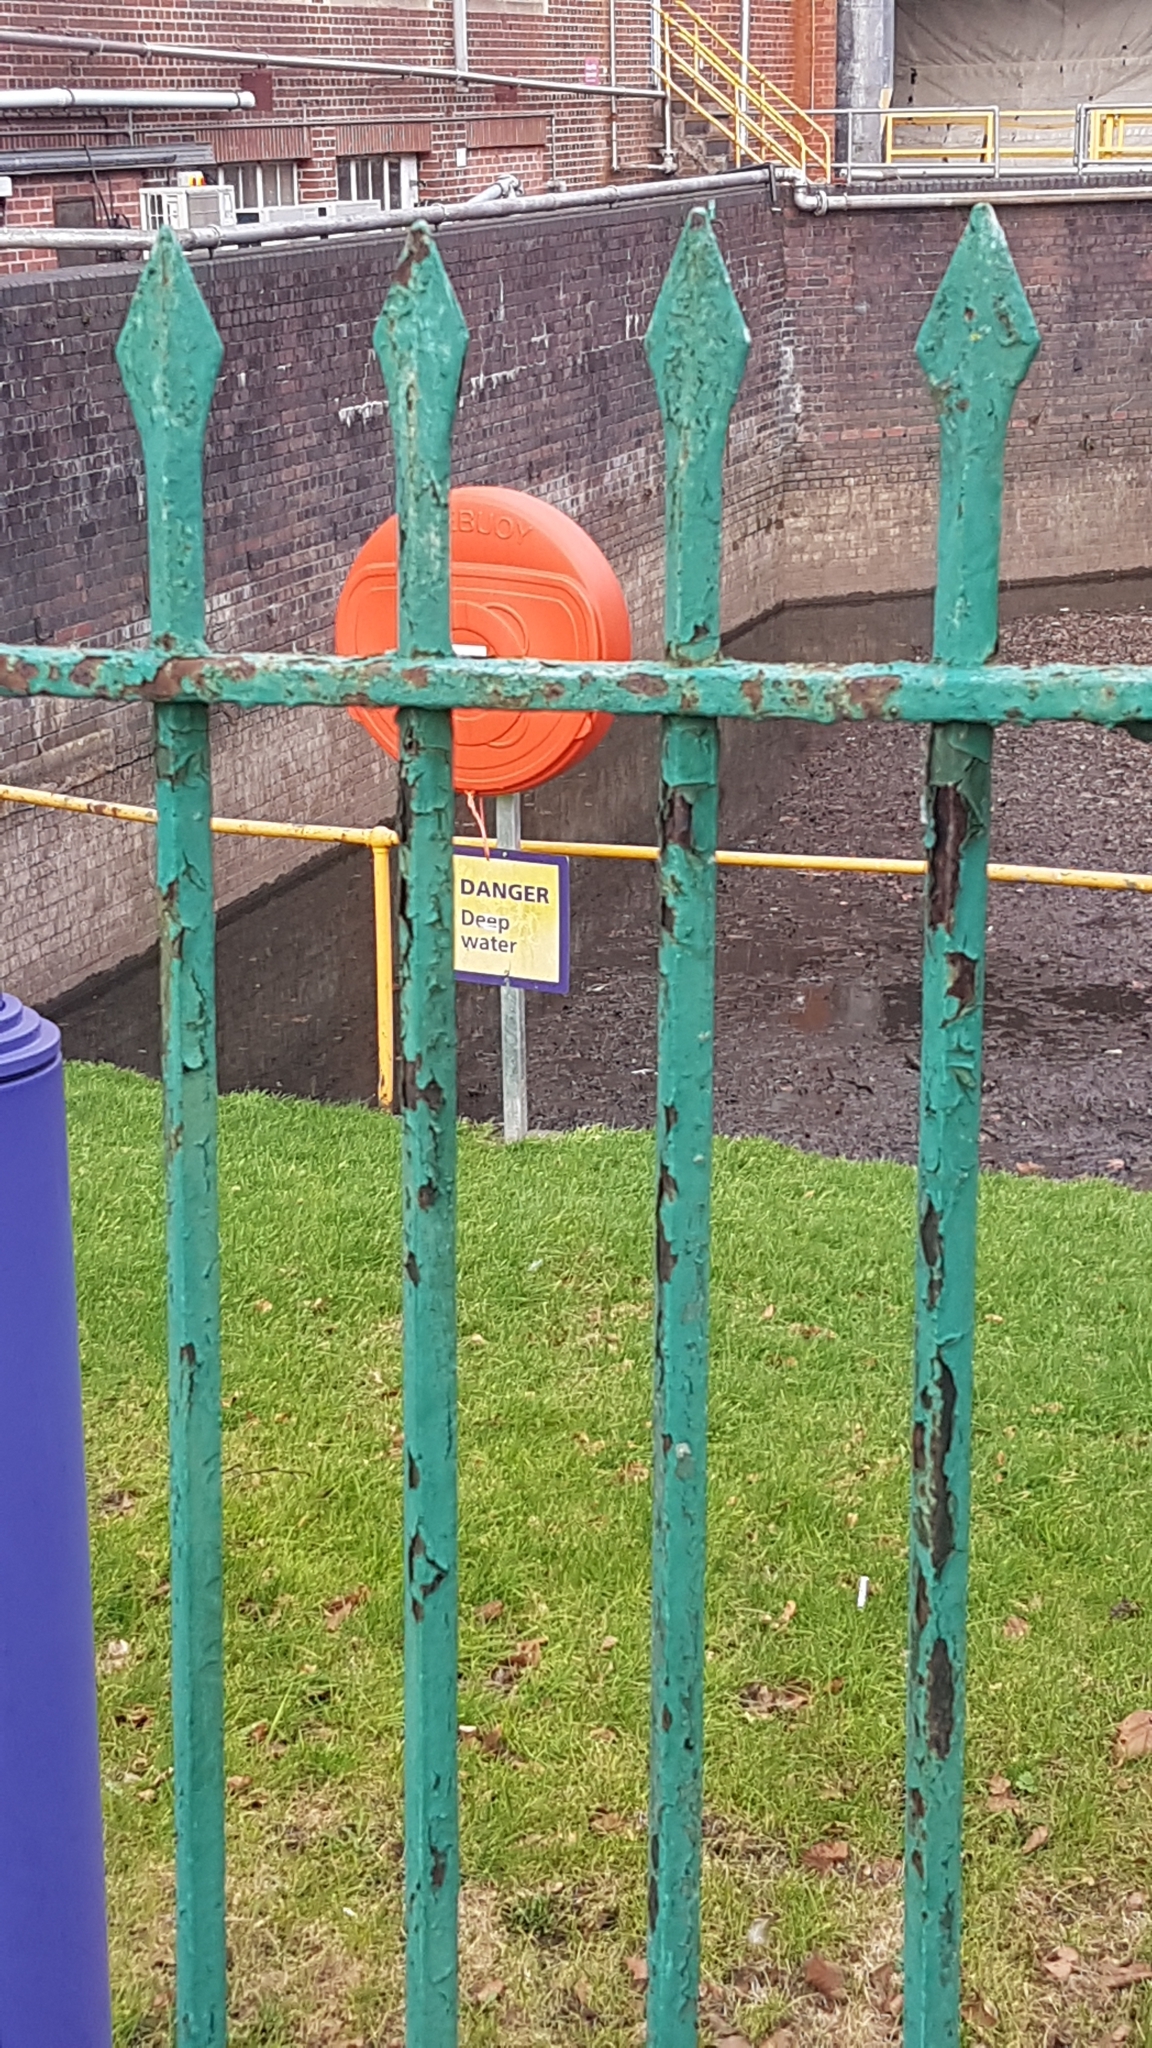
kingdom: Animalia
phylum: Chordata
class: Aves
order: Passeriformes
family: Motacillidae
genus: Motacilla
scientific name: Motacilla cinerea
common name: Grey wagtail
